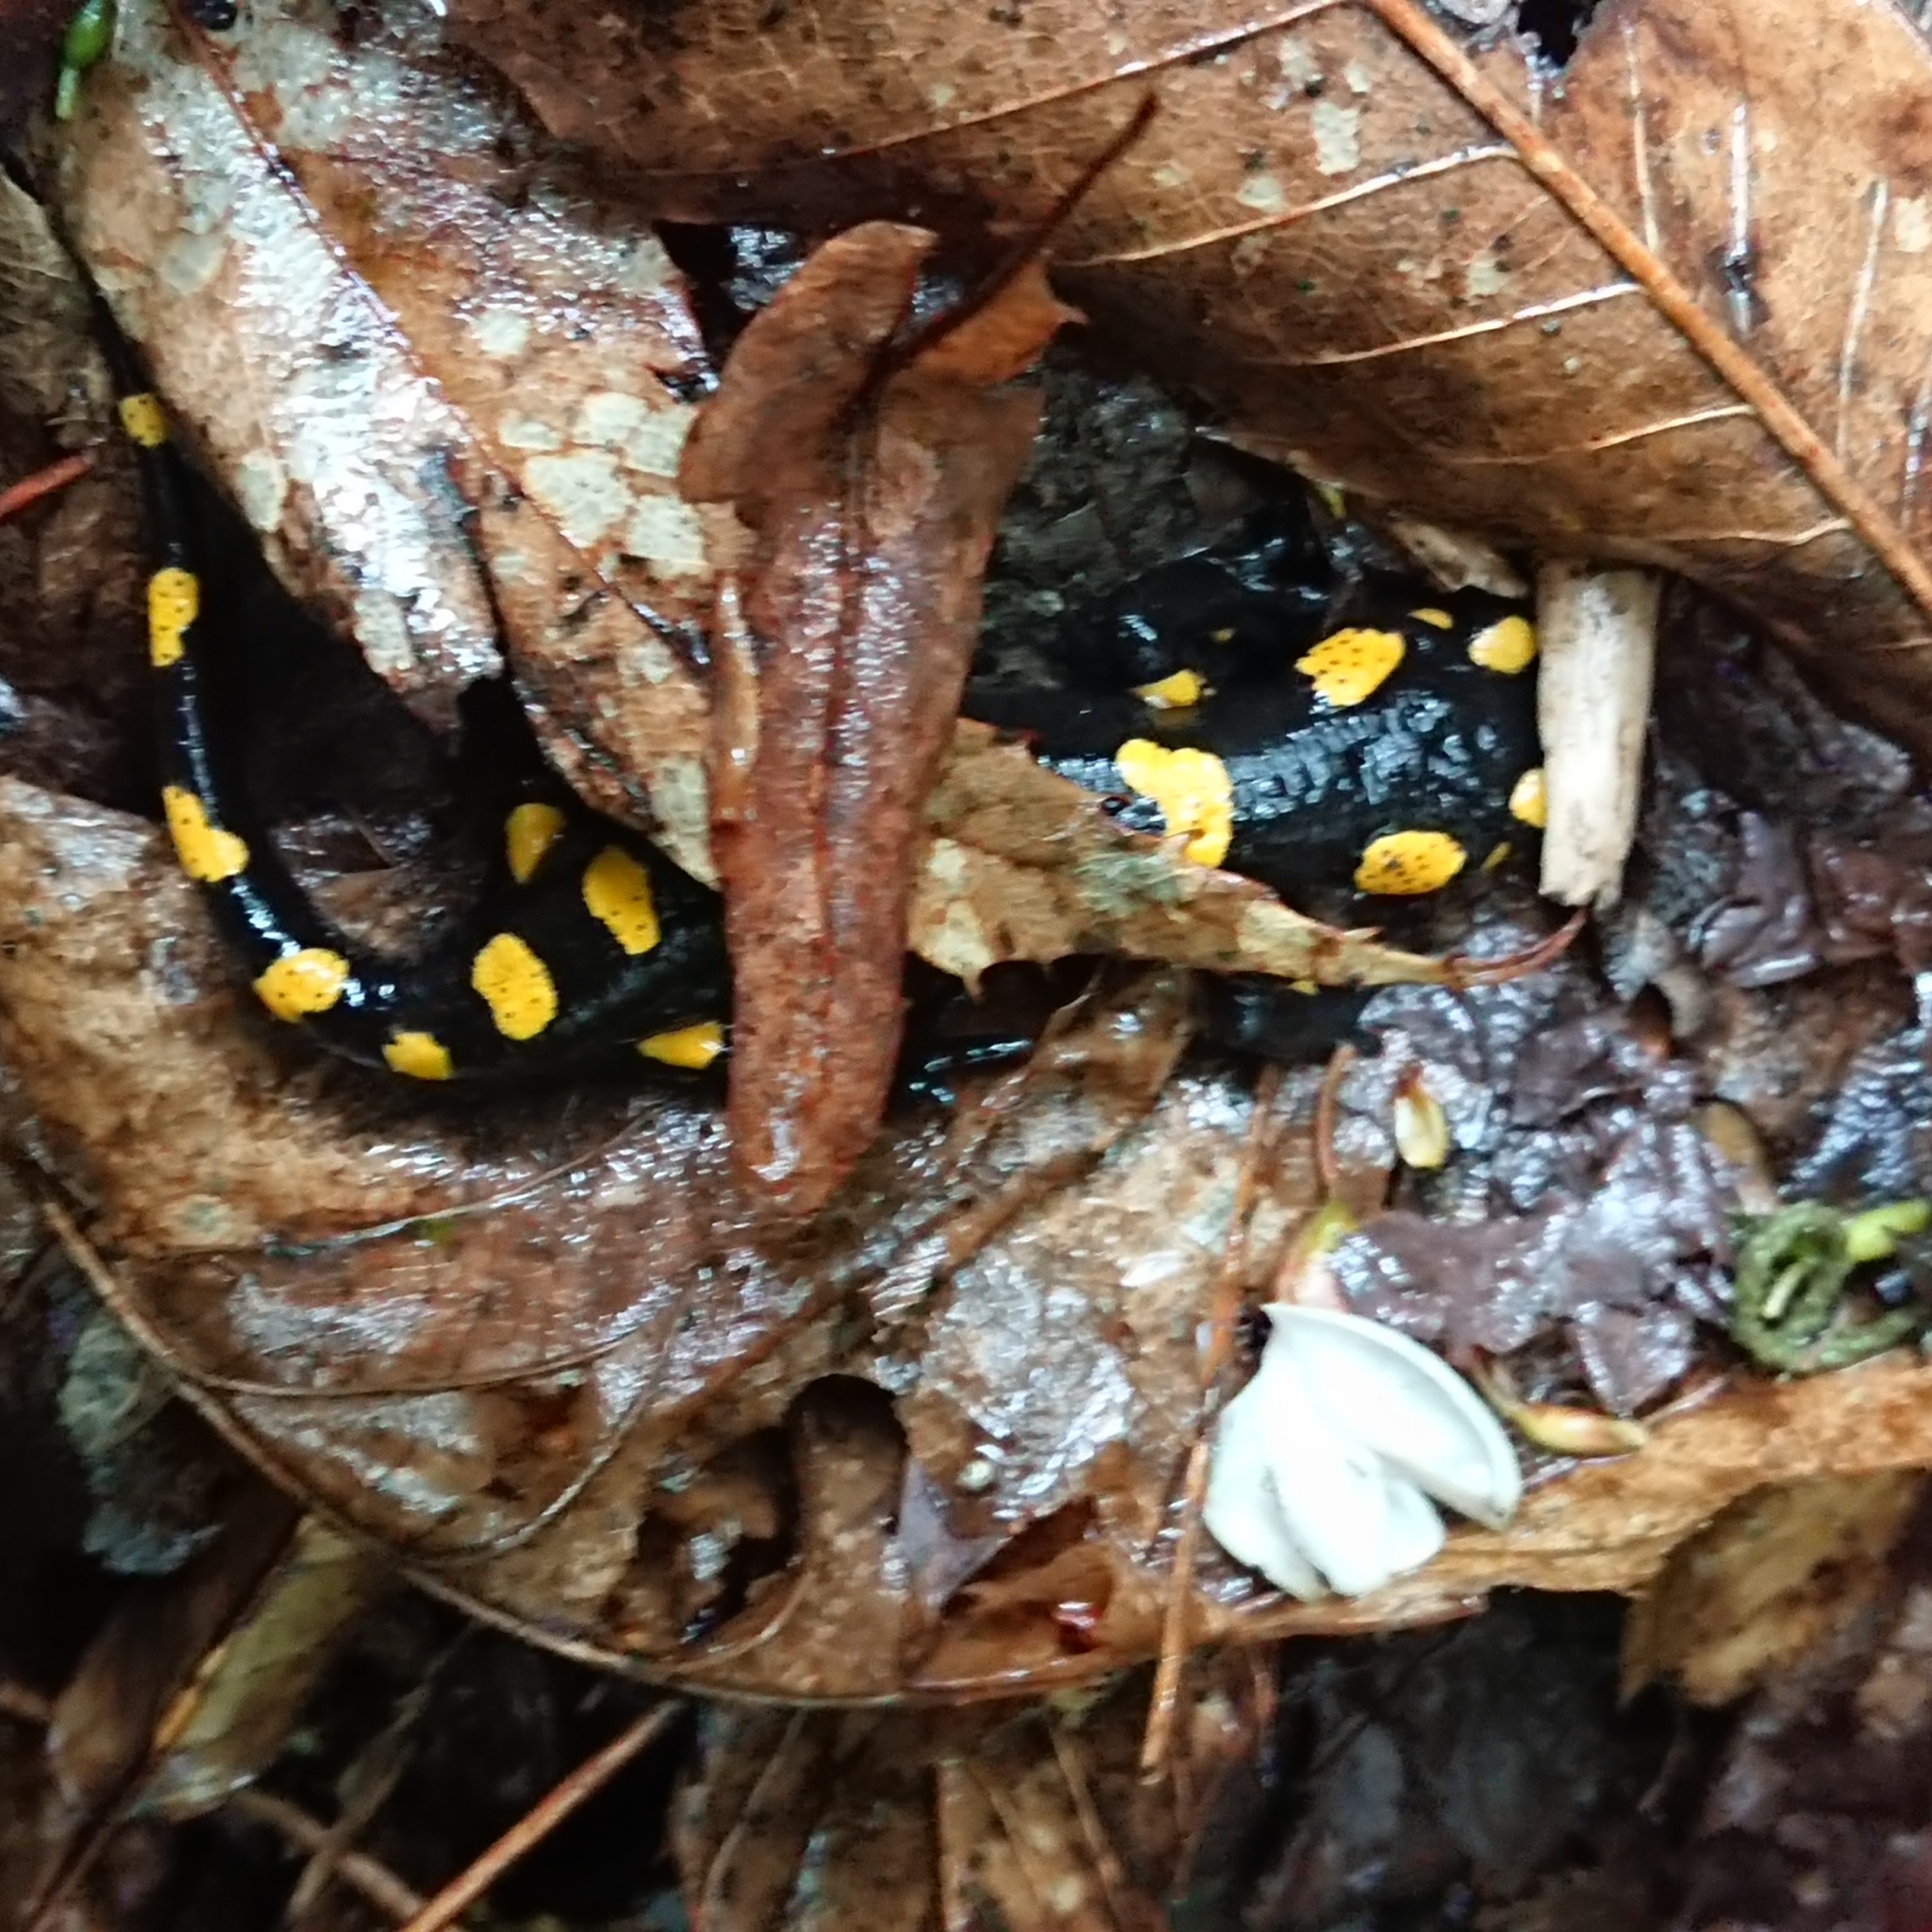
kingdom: Animalia
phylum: Chordata
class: Amphibia
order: Caudata
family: Salamandridae
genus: Salamandra
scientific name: Salamandra salamandra
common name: Fire salamander
